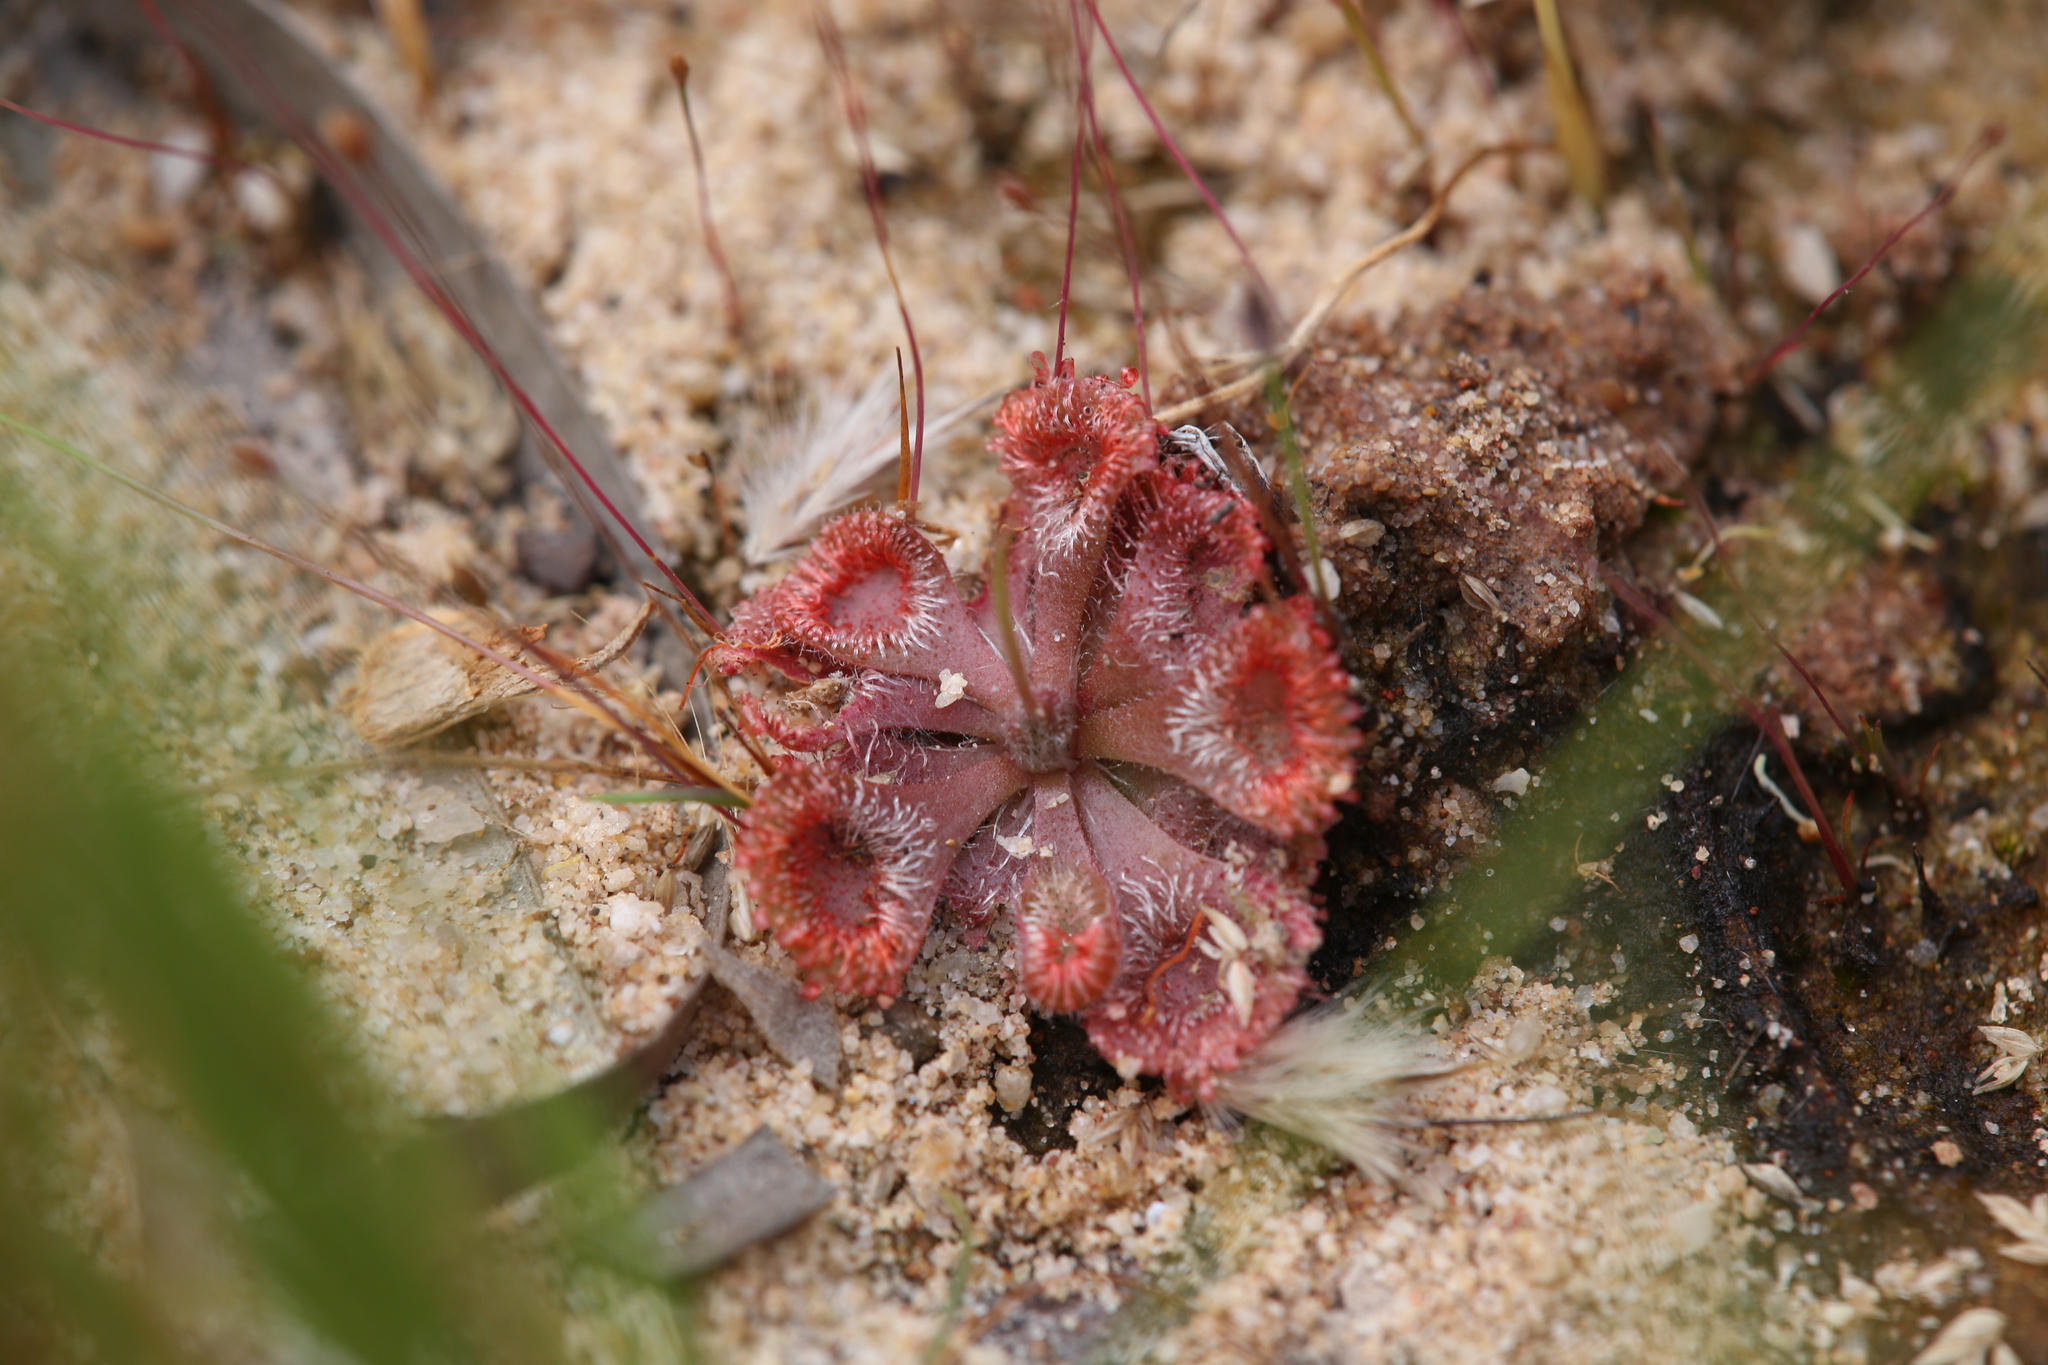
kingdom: Plantae
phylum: Tracheophyta
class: Magnoliopsida
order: Caryophyllales
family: Droseraceae
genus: Drosera
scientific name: Drosera spatulata
